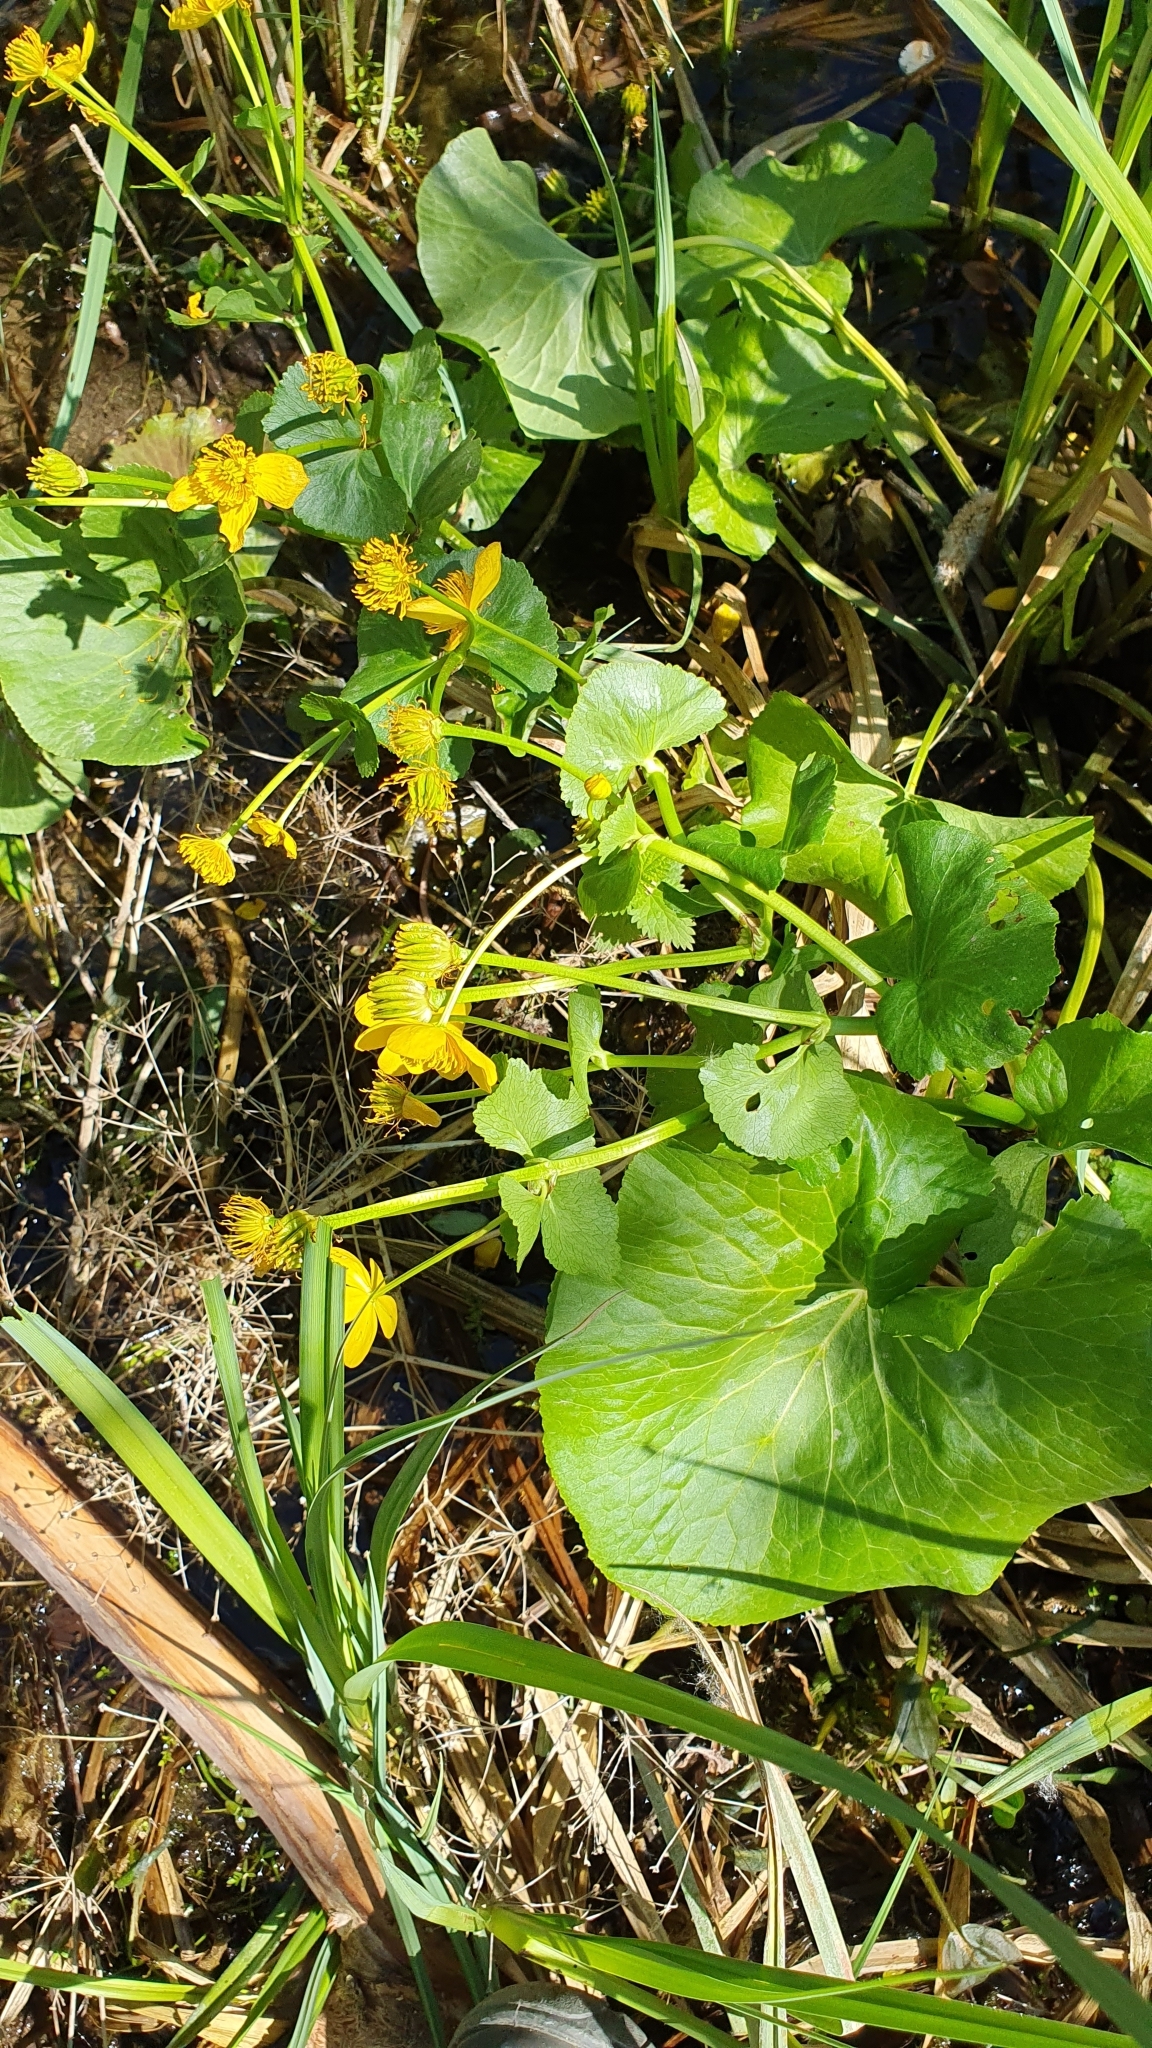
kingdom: Plantae
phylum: Tracheophyta
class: Magnoliopsida
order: Ranunculales
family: Ranunculaceae
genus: Caltha
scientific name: Caltha palustris
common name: Marsh marigold
